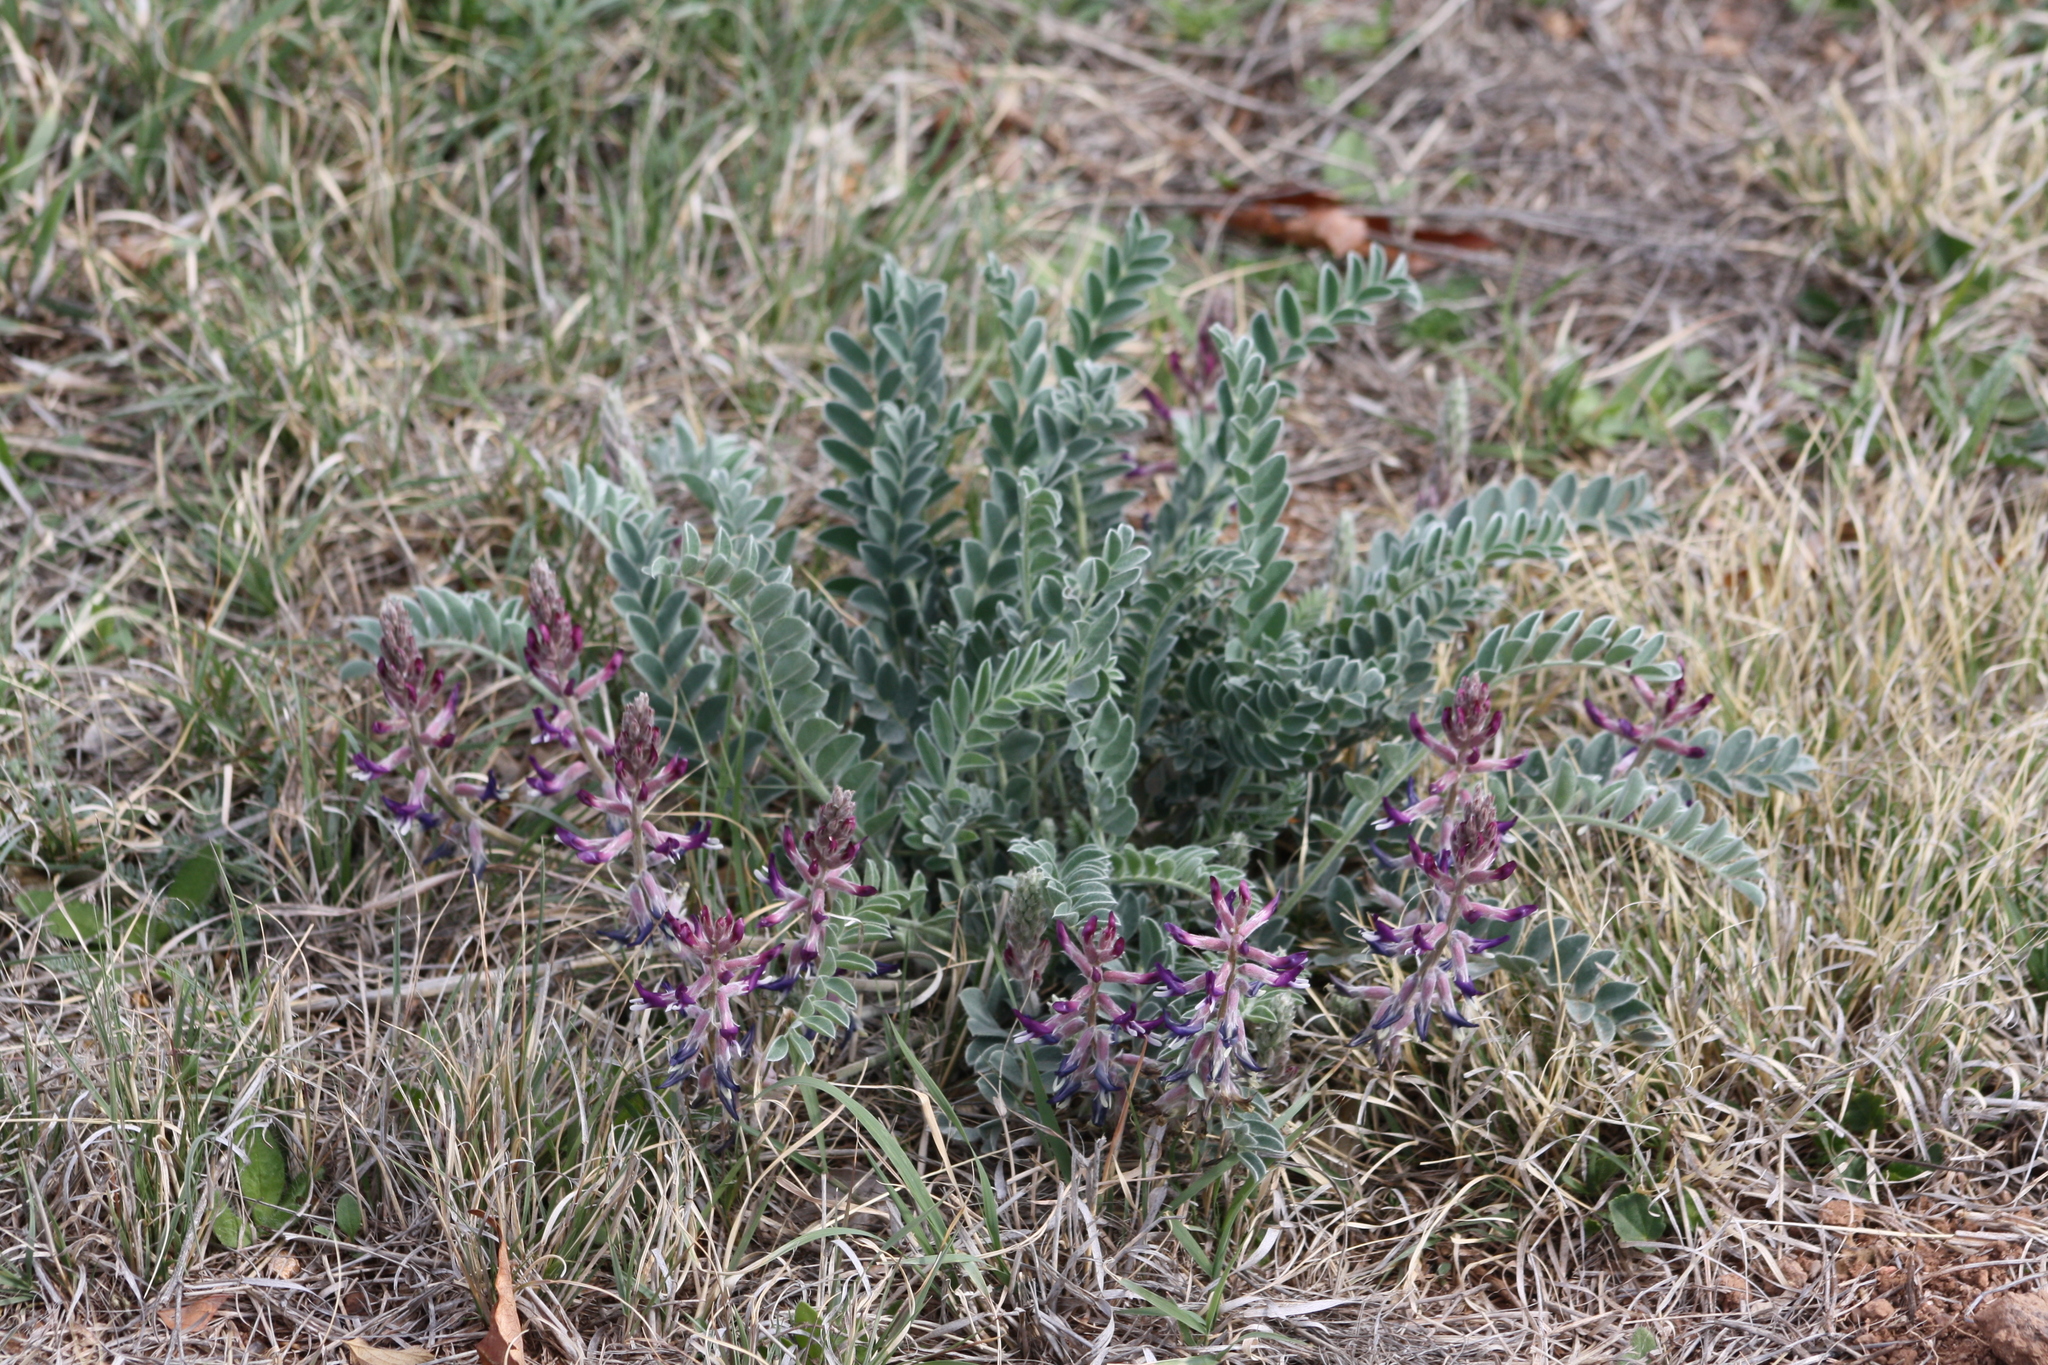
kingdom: Plantae
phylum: Tracheophyta
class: Magnoliopsida
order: Fabales
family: Fabaceae
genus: Astragalus
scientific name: Astragalus mollissimus
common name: Woolly locoweed
